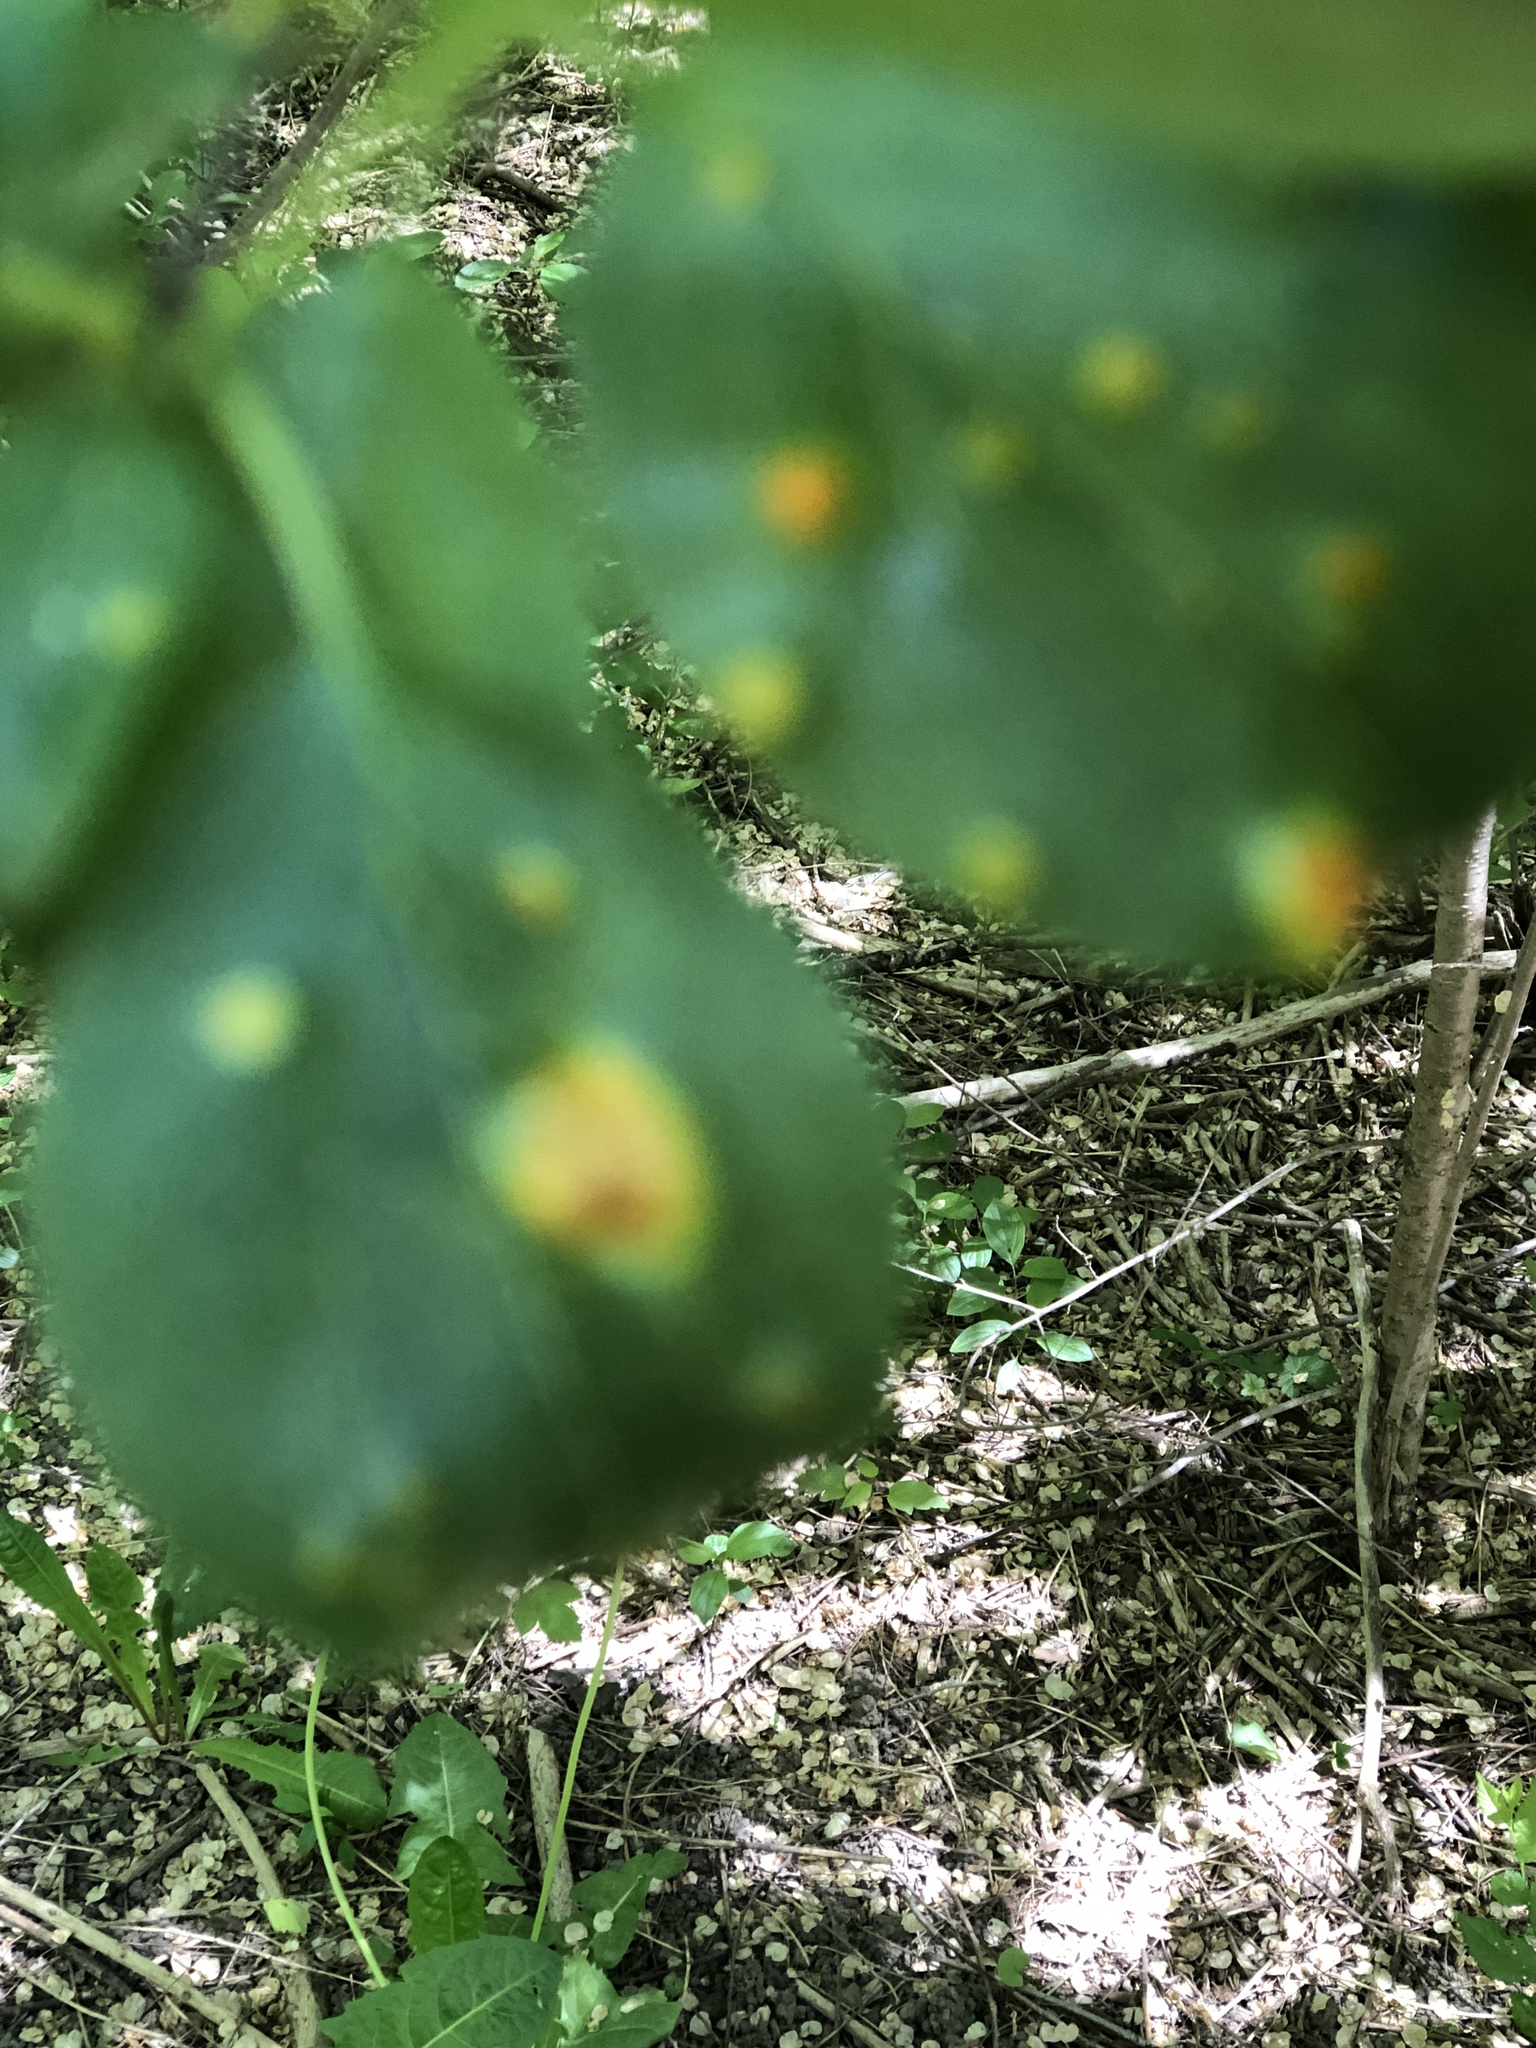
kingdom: Fungi
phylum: Basidiomycota
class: Pucciniomycetes
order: Pucciniales
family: Pucciniaceae
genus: Puccinia
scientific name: Puccinia coronata
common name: Crown rust
